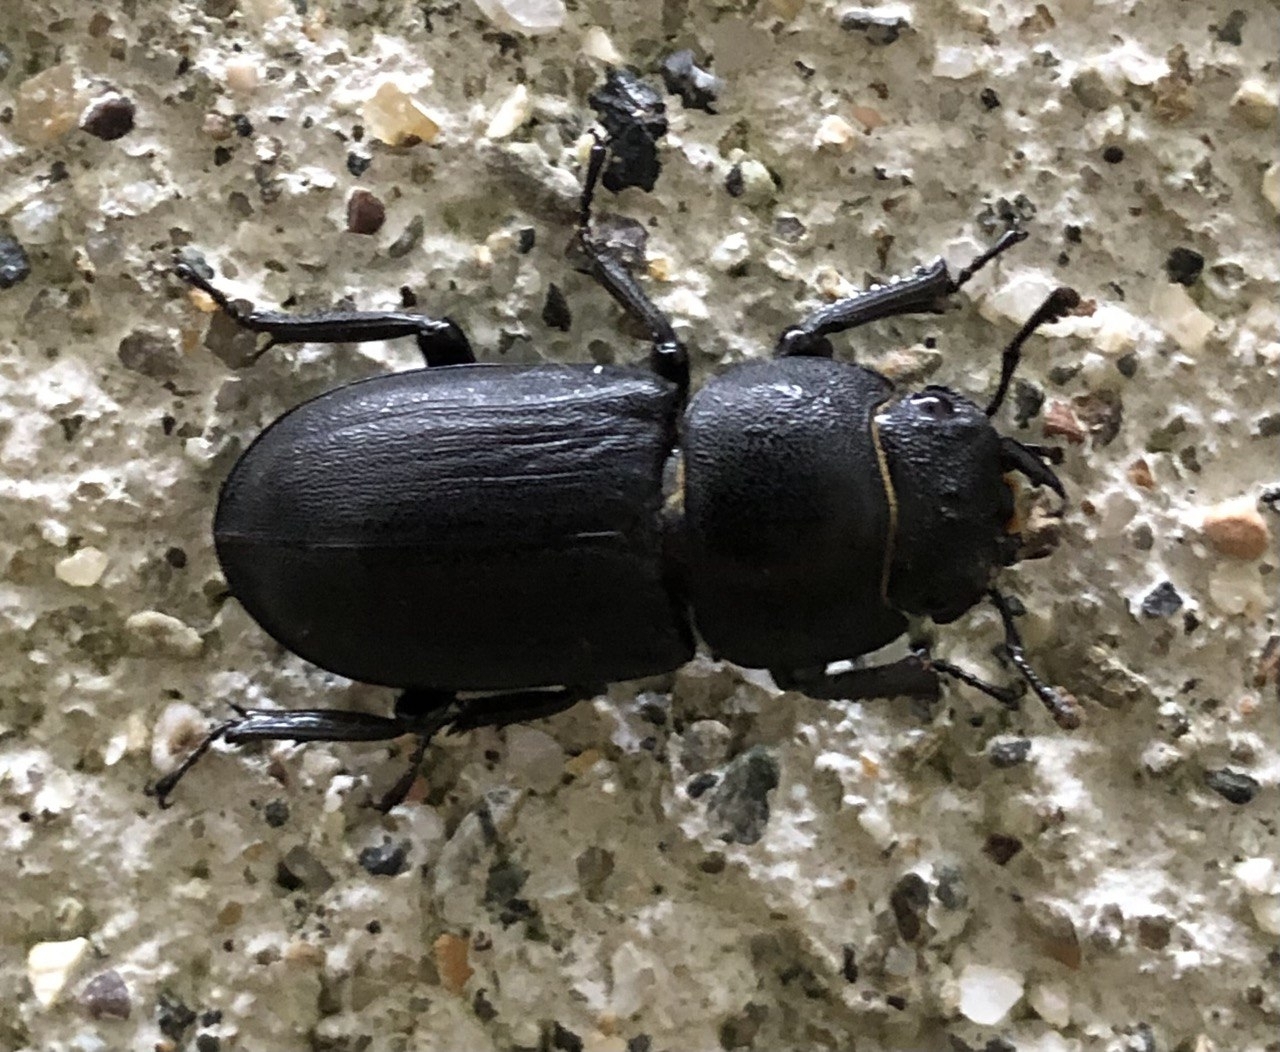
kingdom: Animalia
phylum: Arthropoda
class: Insecta
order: Coleoptera
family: Lucanidae
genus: Dorcus
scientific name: Dorcus parallelipipedus
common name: Lesser stag beetle
